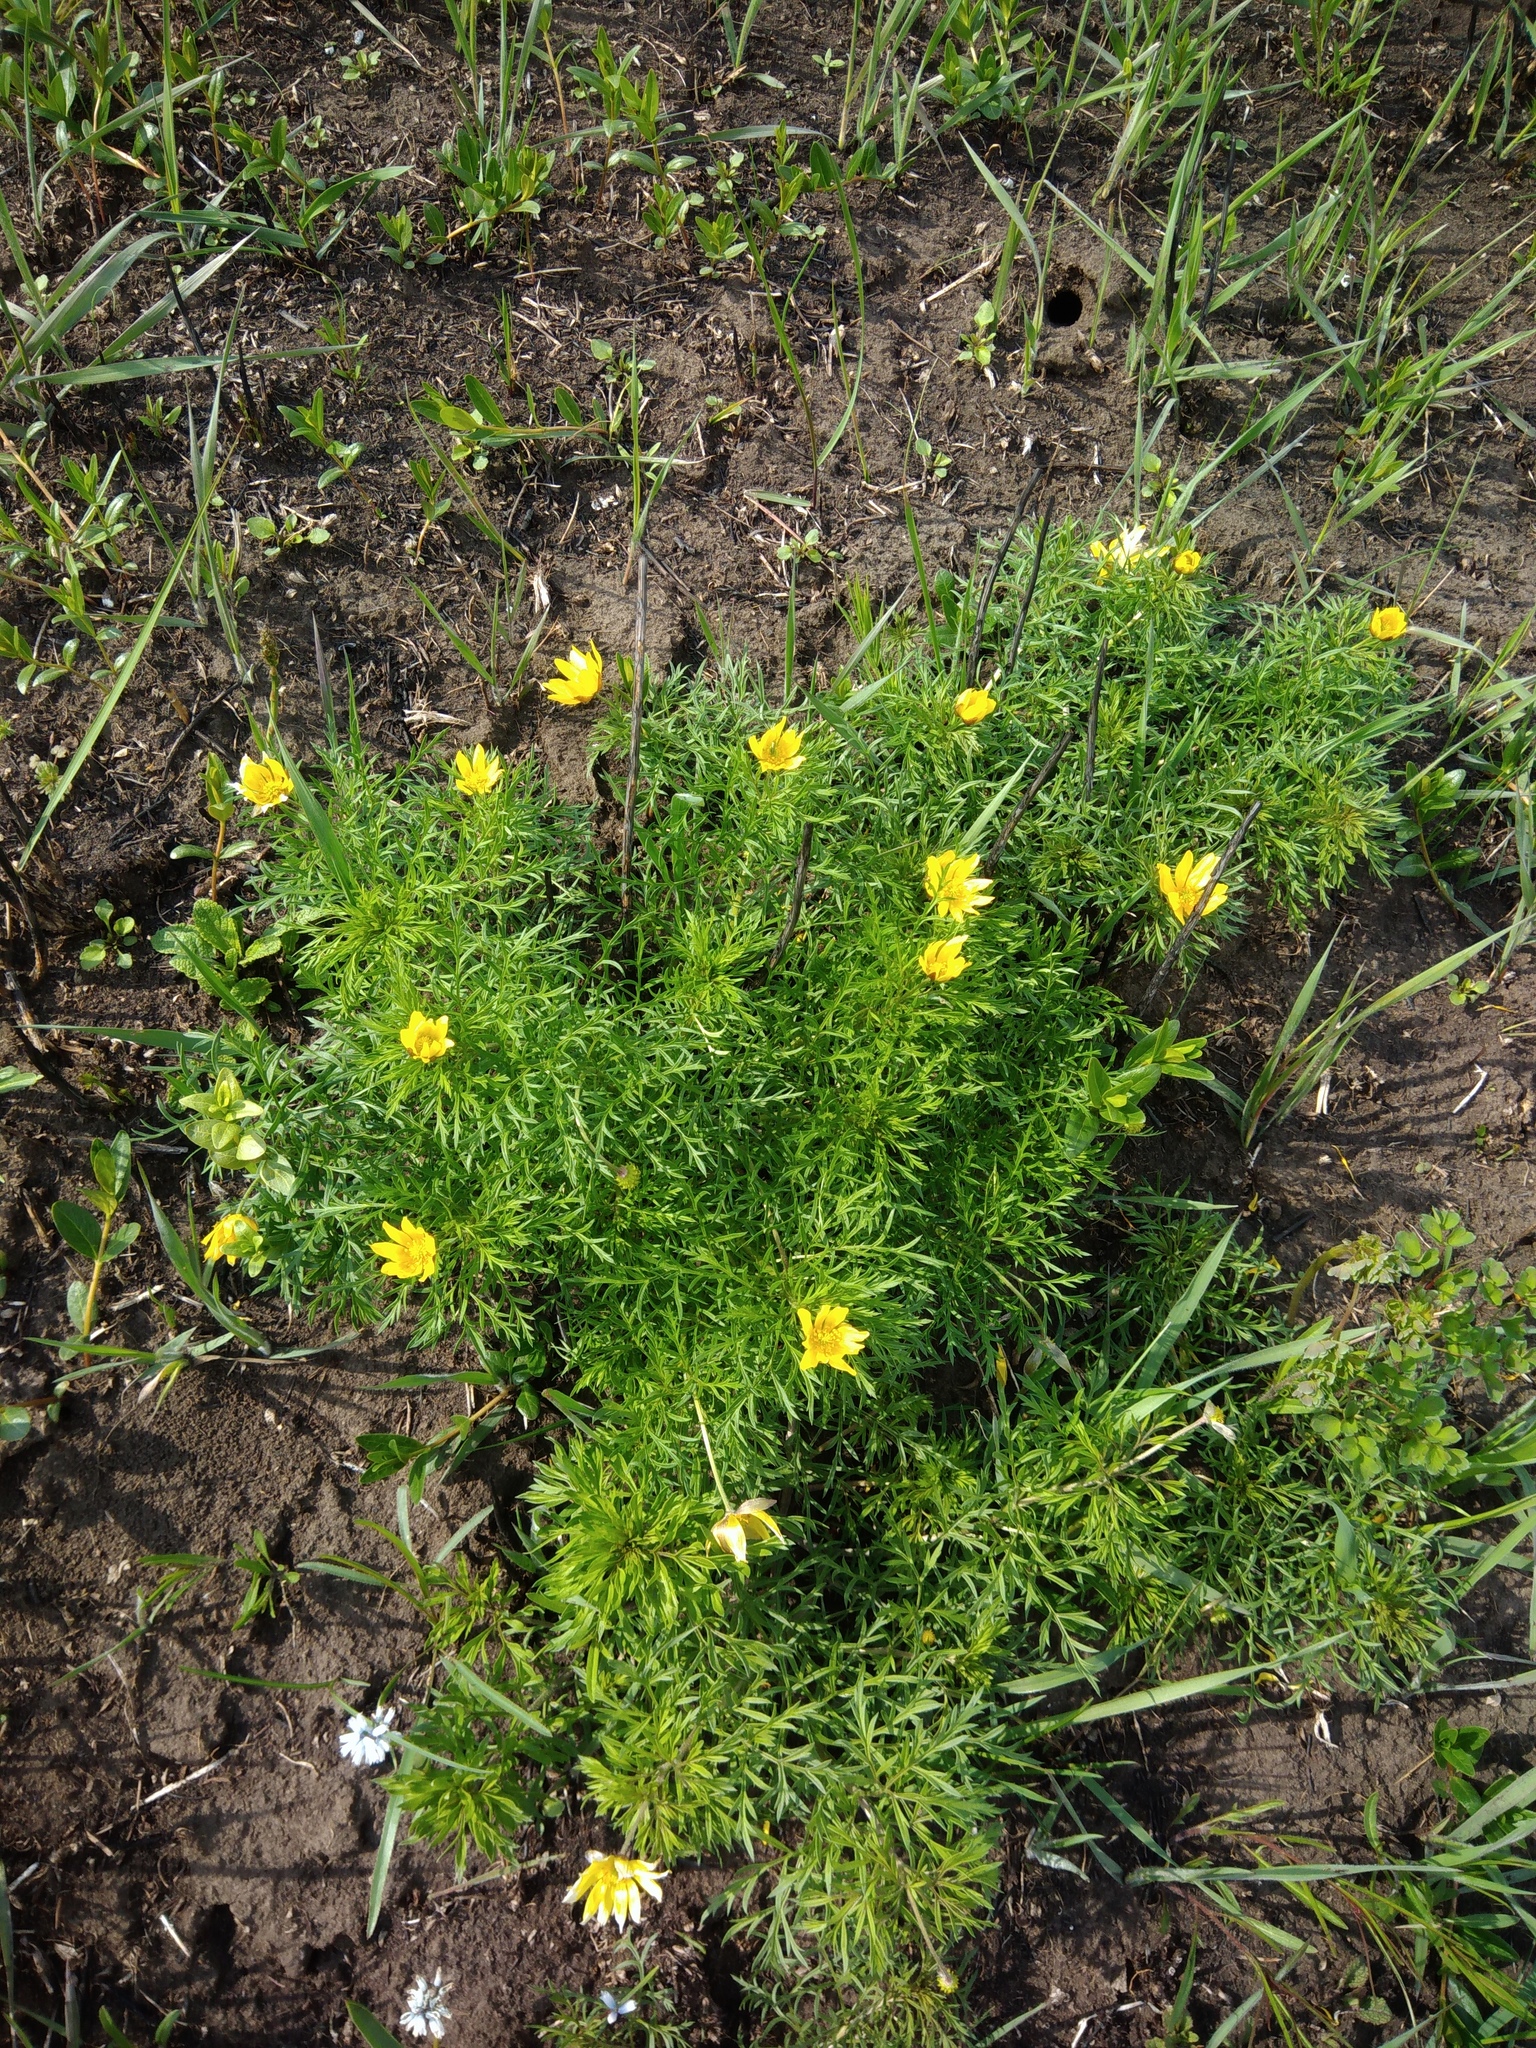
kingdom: Plantae
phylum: Tracheophyta
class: Magnoliopsida
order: Ranunculales
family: Ranunculaceae
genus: Adonis
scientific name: Adonis volgensis
